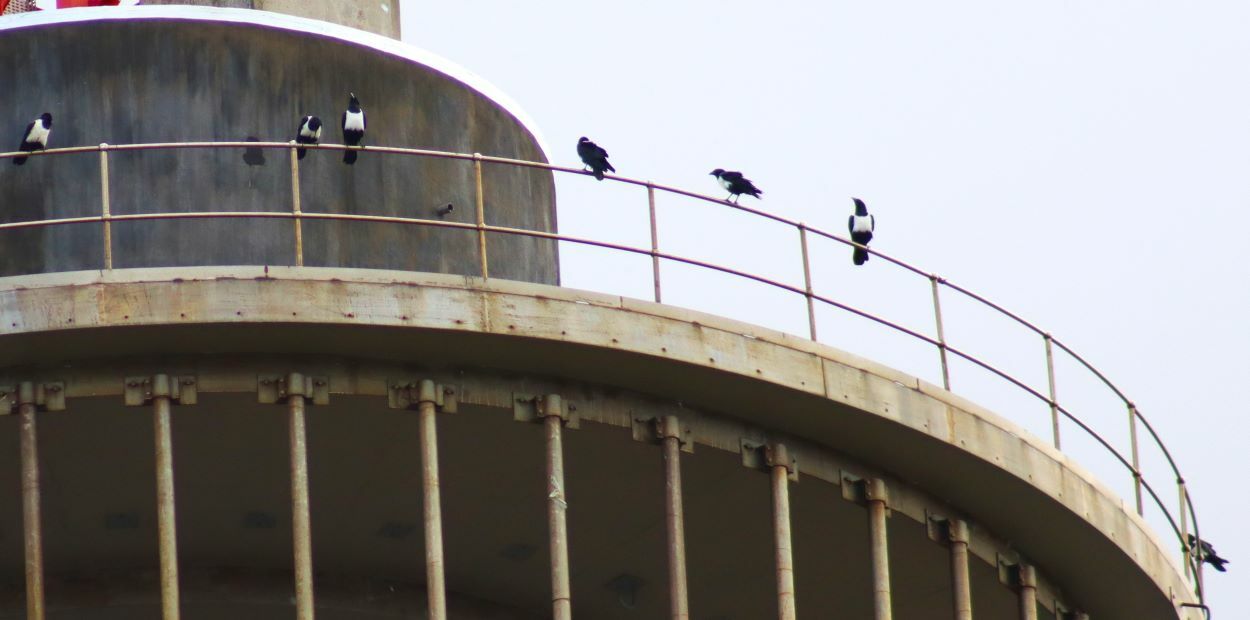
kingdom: Animalia
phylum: Chordata
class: Aves
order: Passeriformes
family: Corvidae
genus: Corvus
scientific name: Corvus albus
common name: Pied crow
